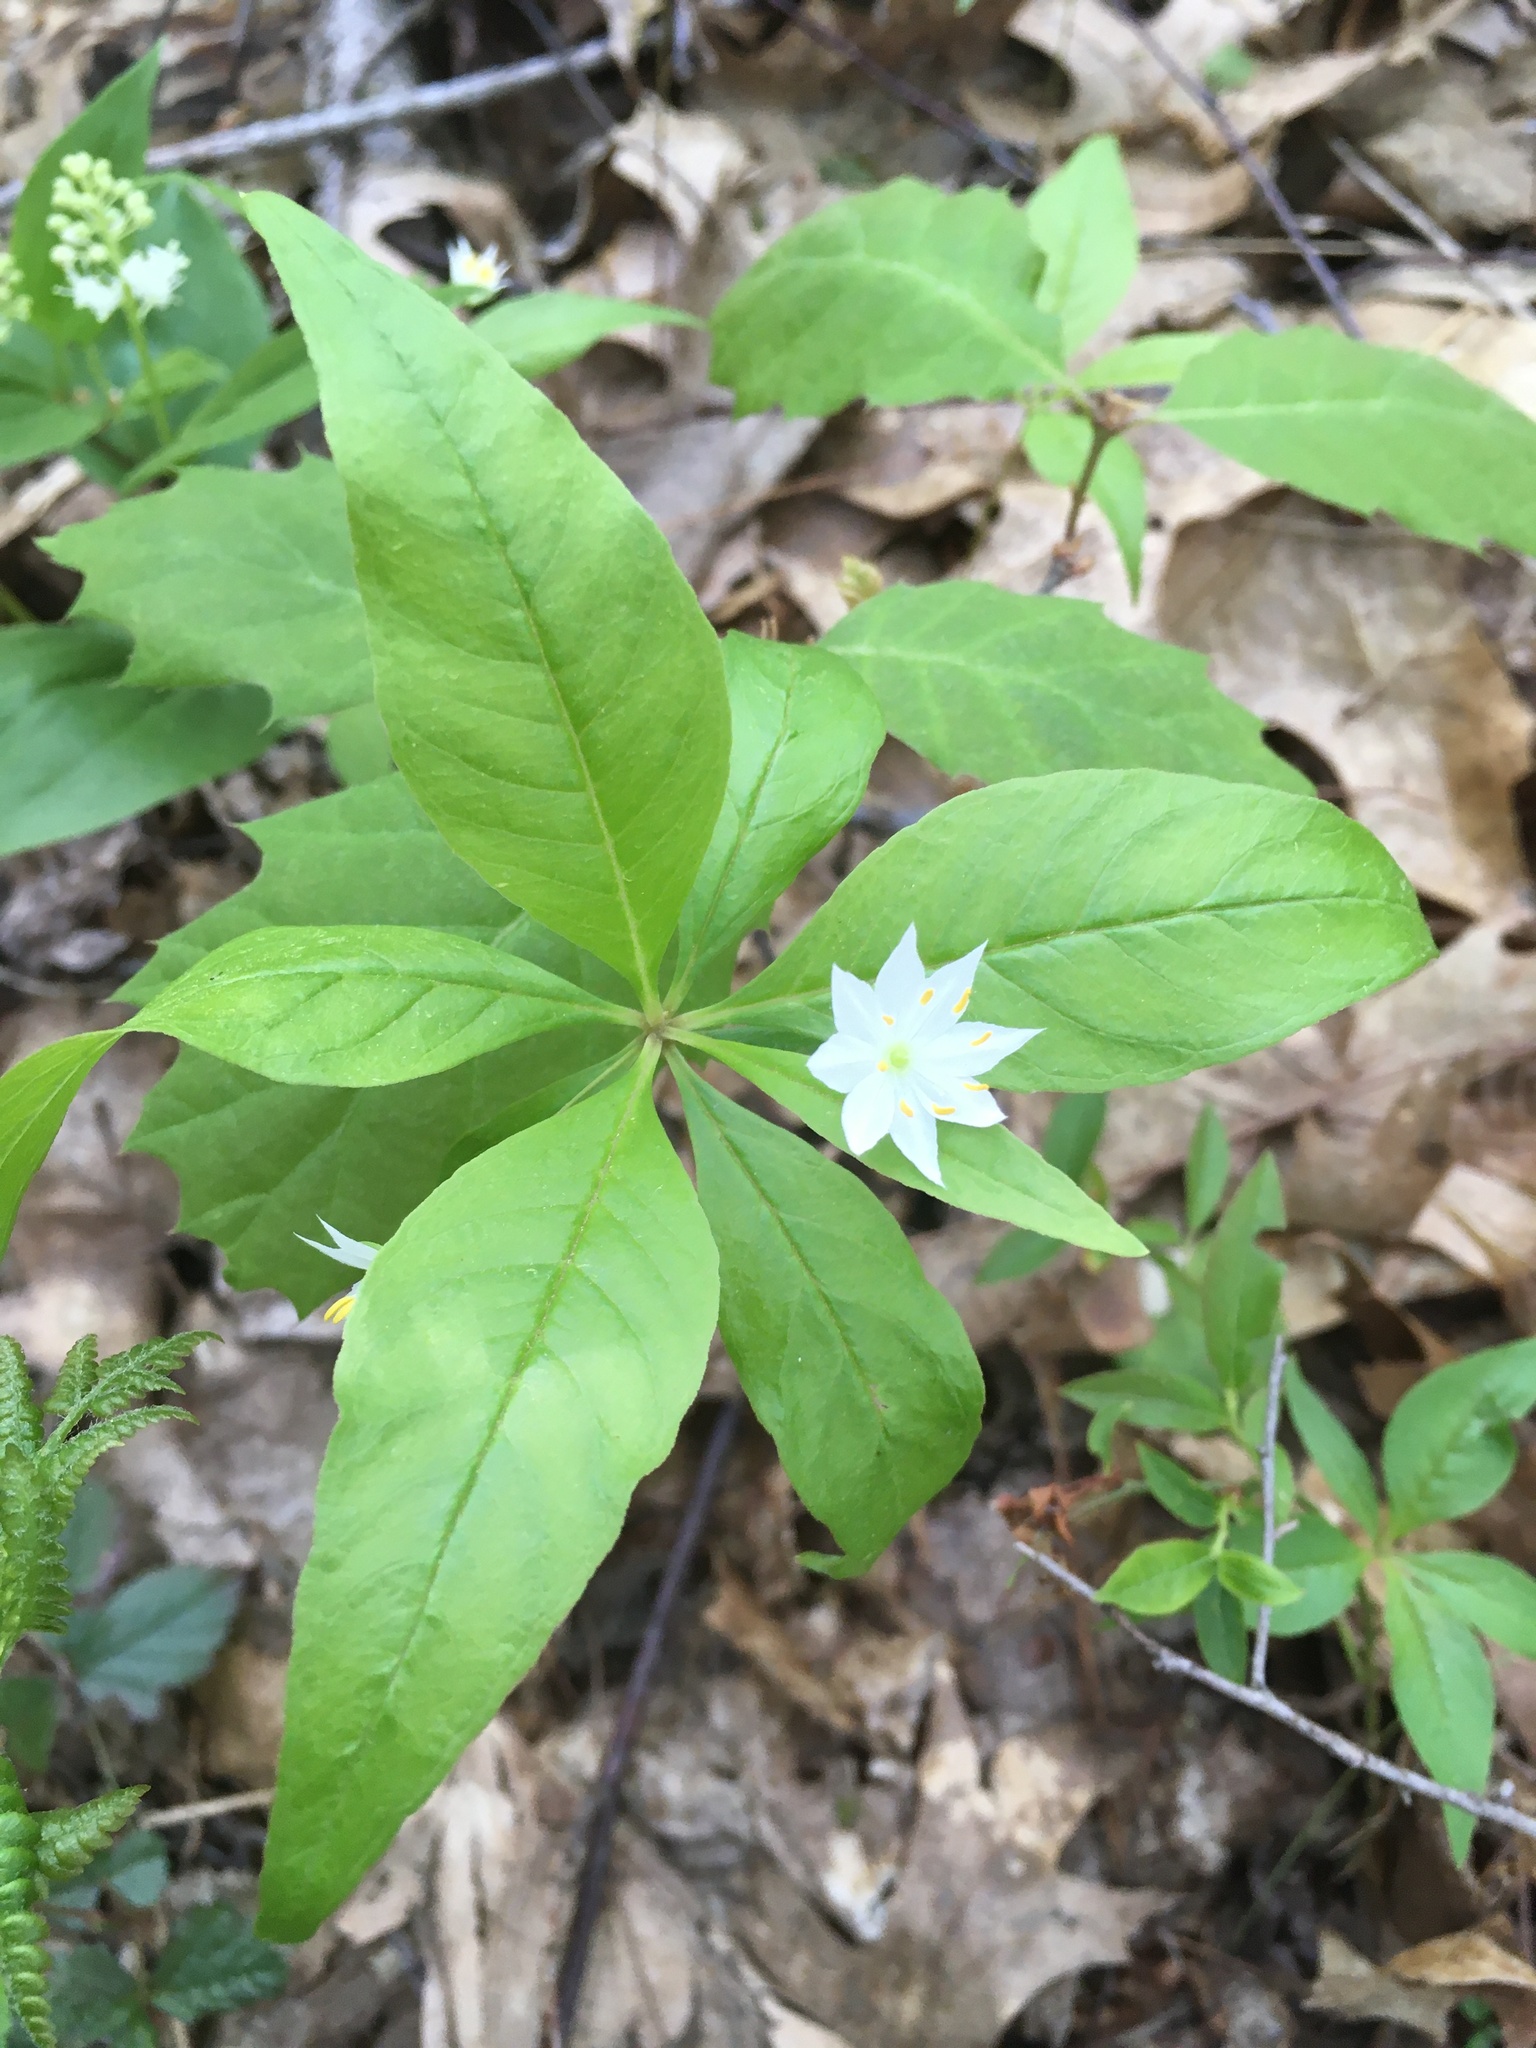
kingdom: Plantae
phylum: Tracheophyta
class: Magnoliopsida
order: Ericales
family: Primulaceae
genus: Lysimachia
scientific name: Lysimachia borealis
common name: American starflower
